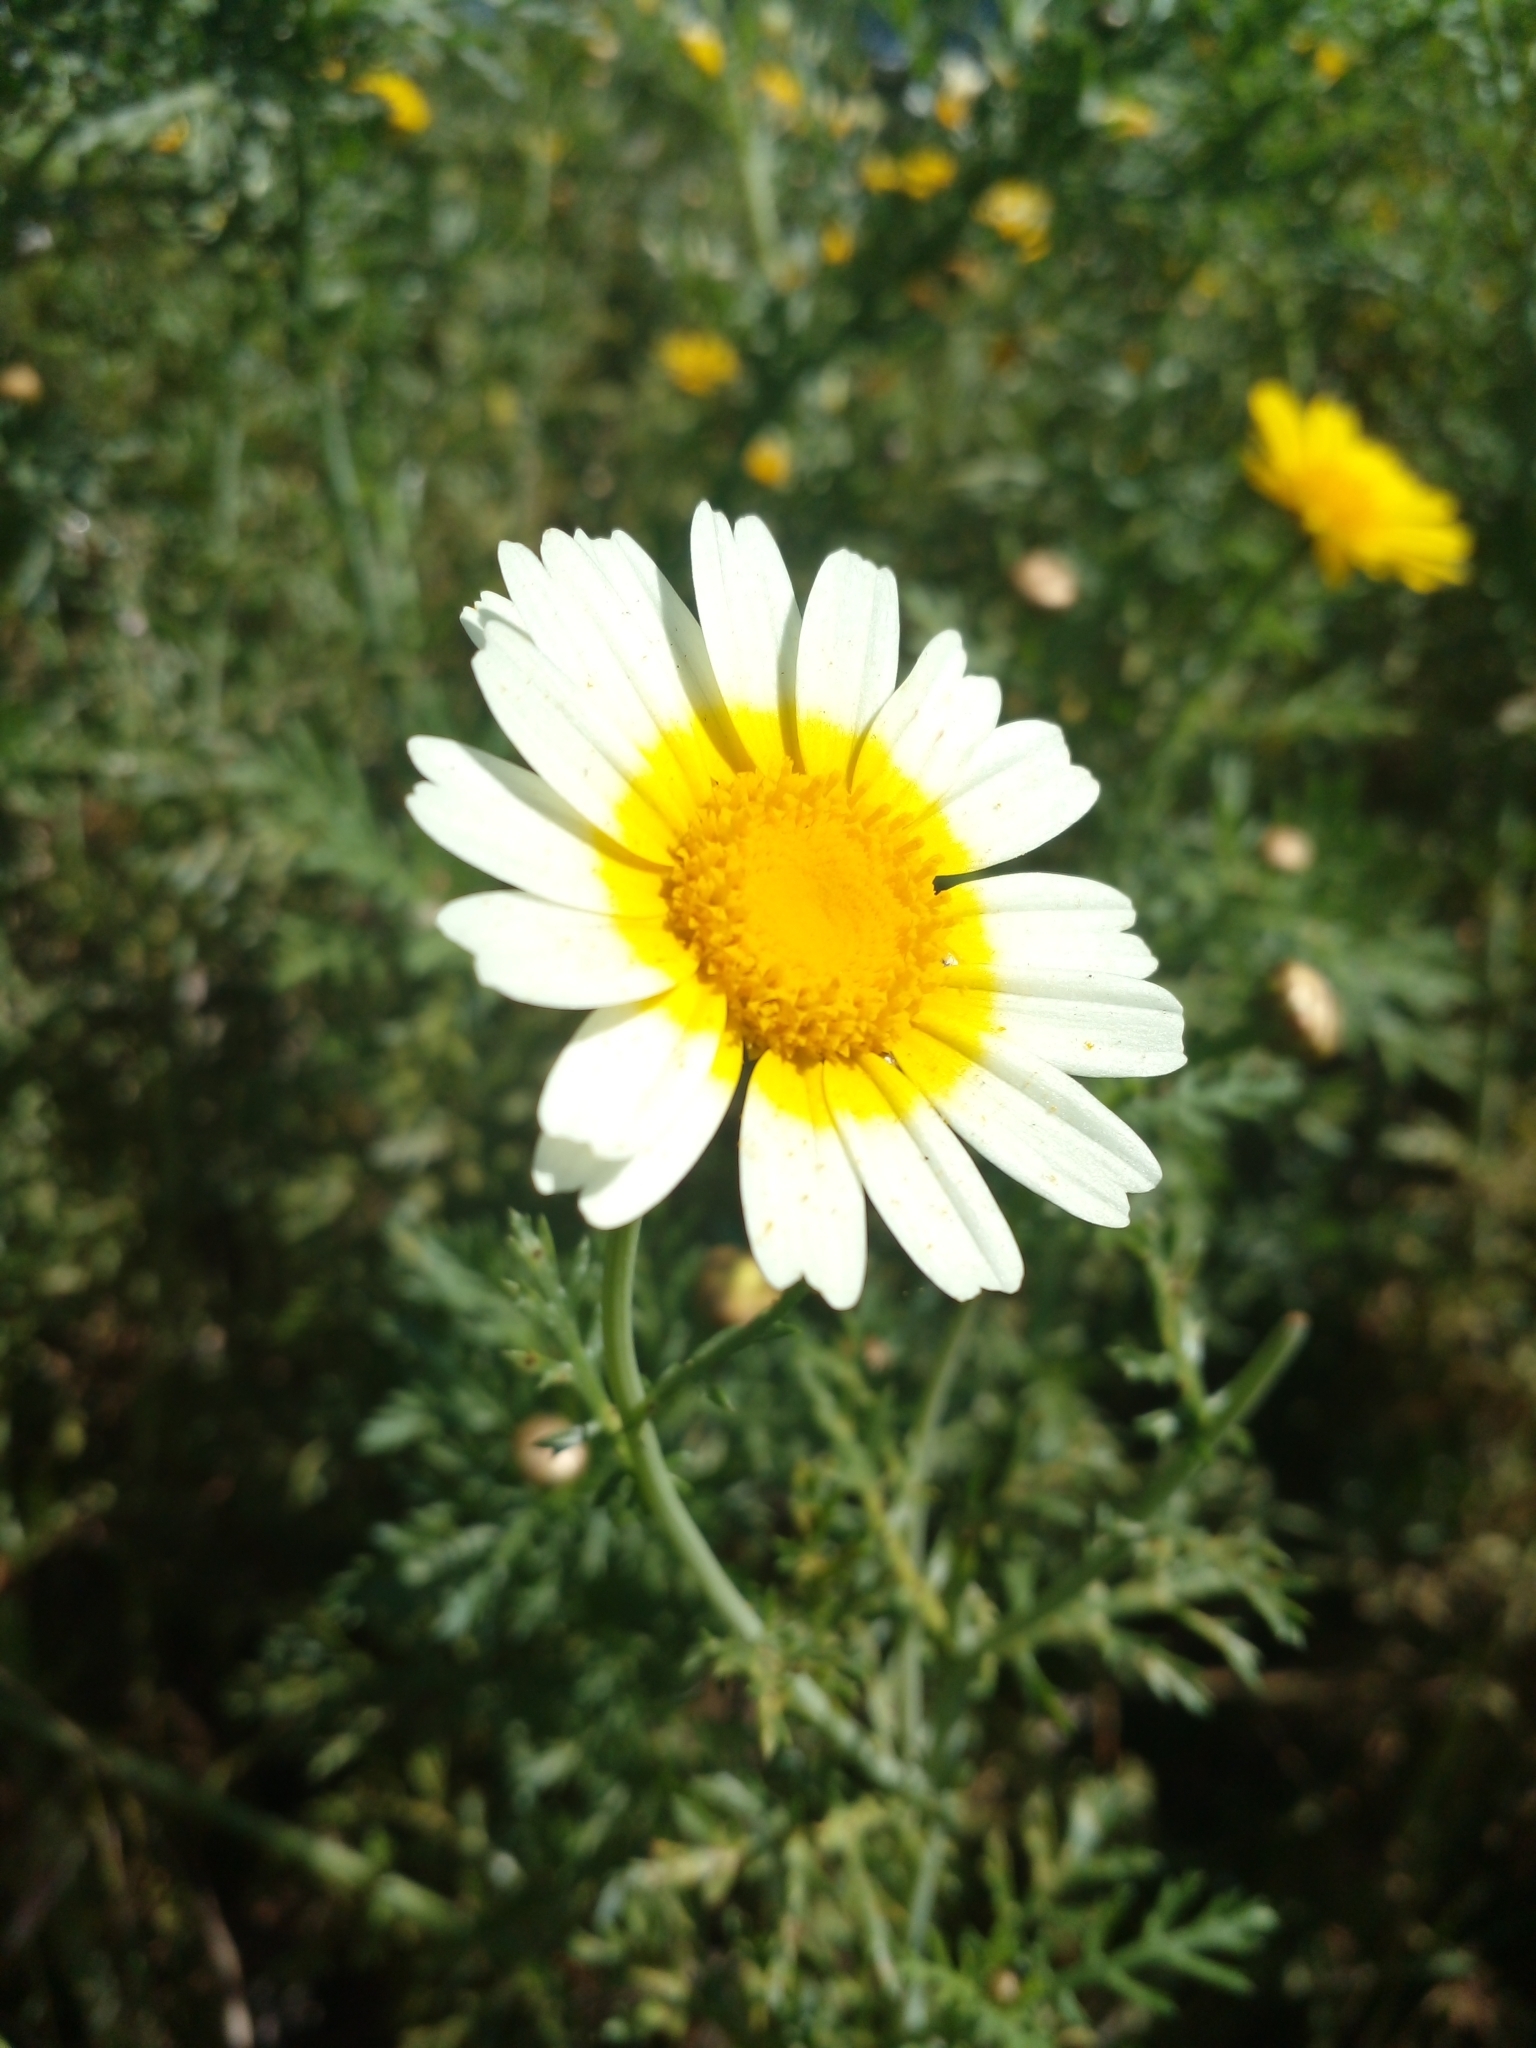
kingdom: Plantae
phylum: Tracheophyta
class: Magnoliopsida
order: Asterales
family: Asteraceae
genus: Glebionis
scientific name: Glebionis coronaria
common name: Crowndaisy
